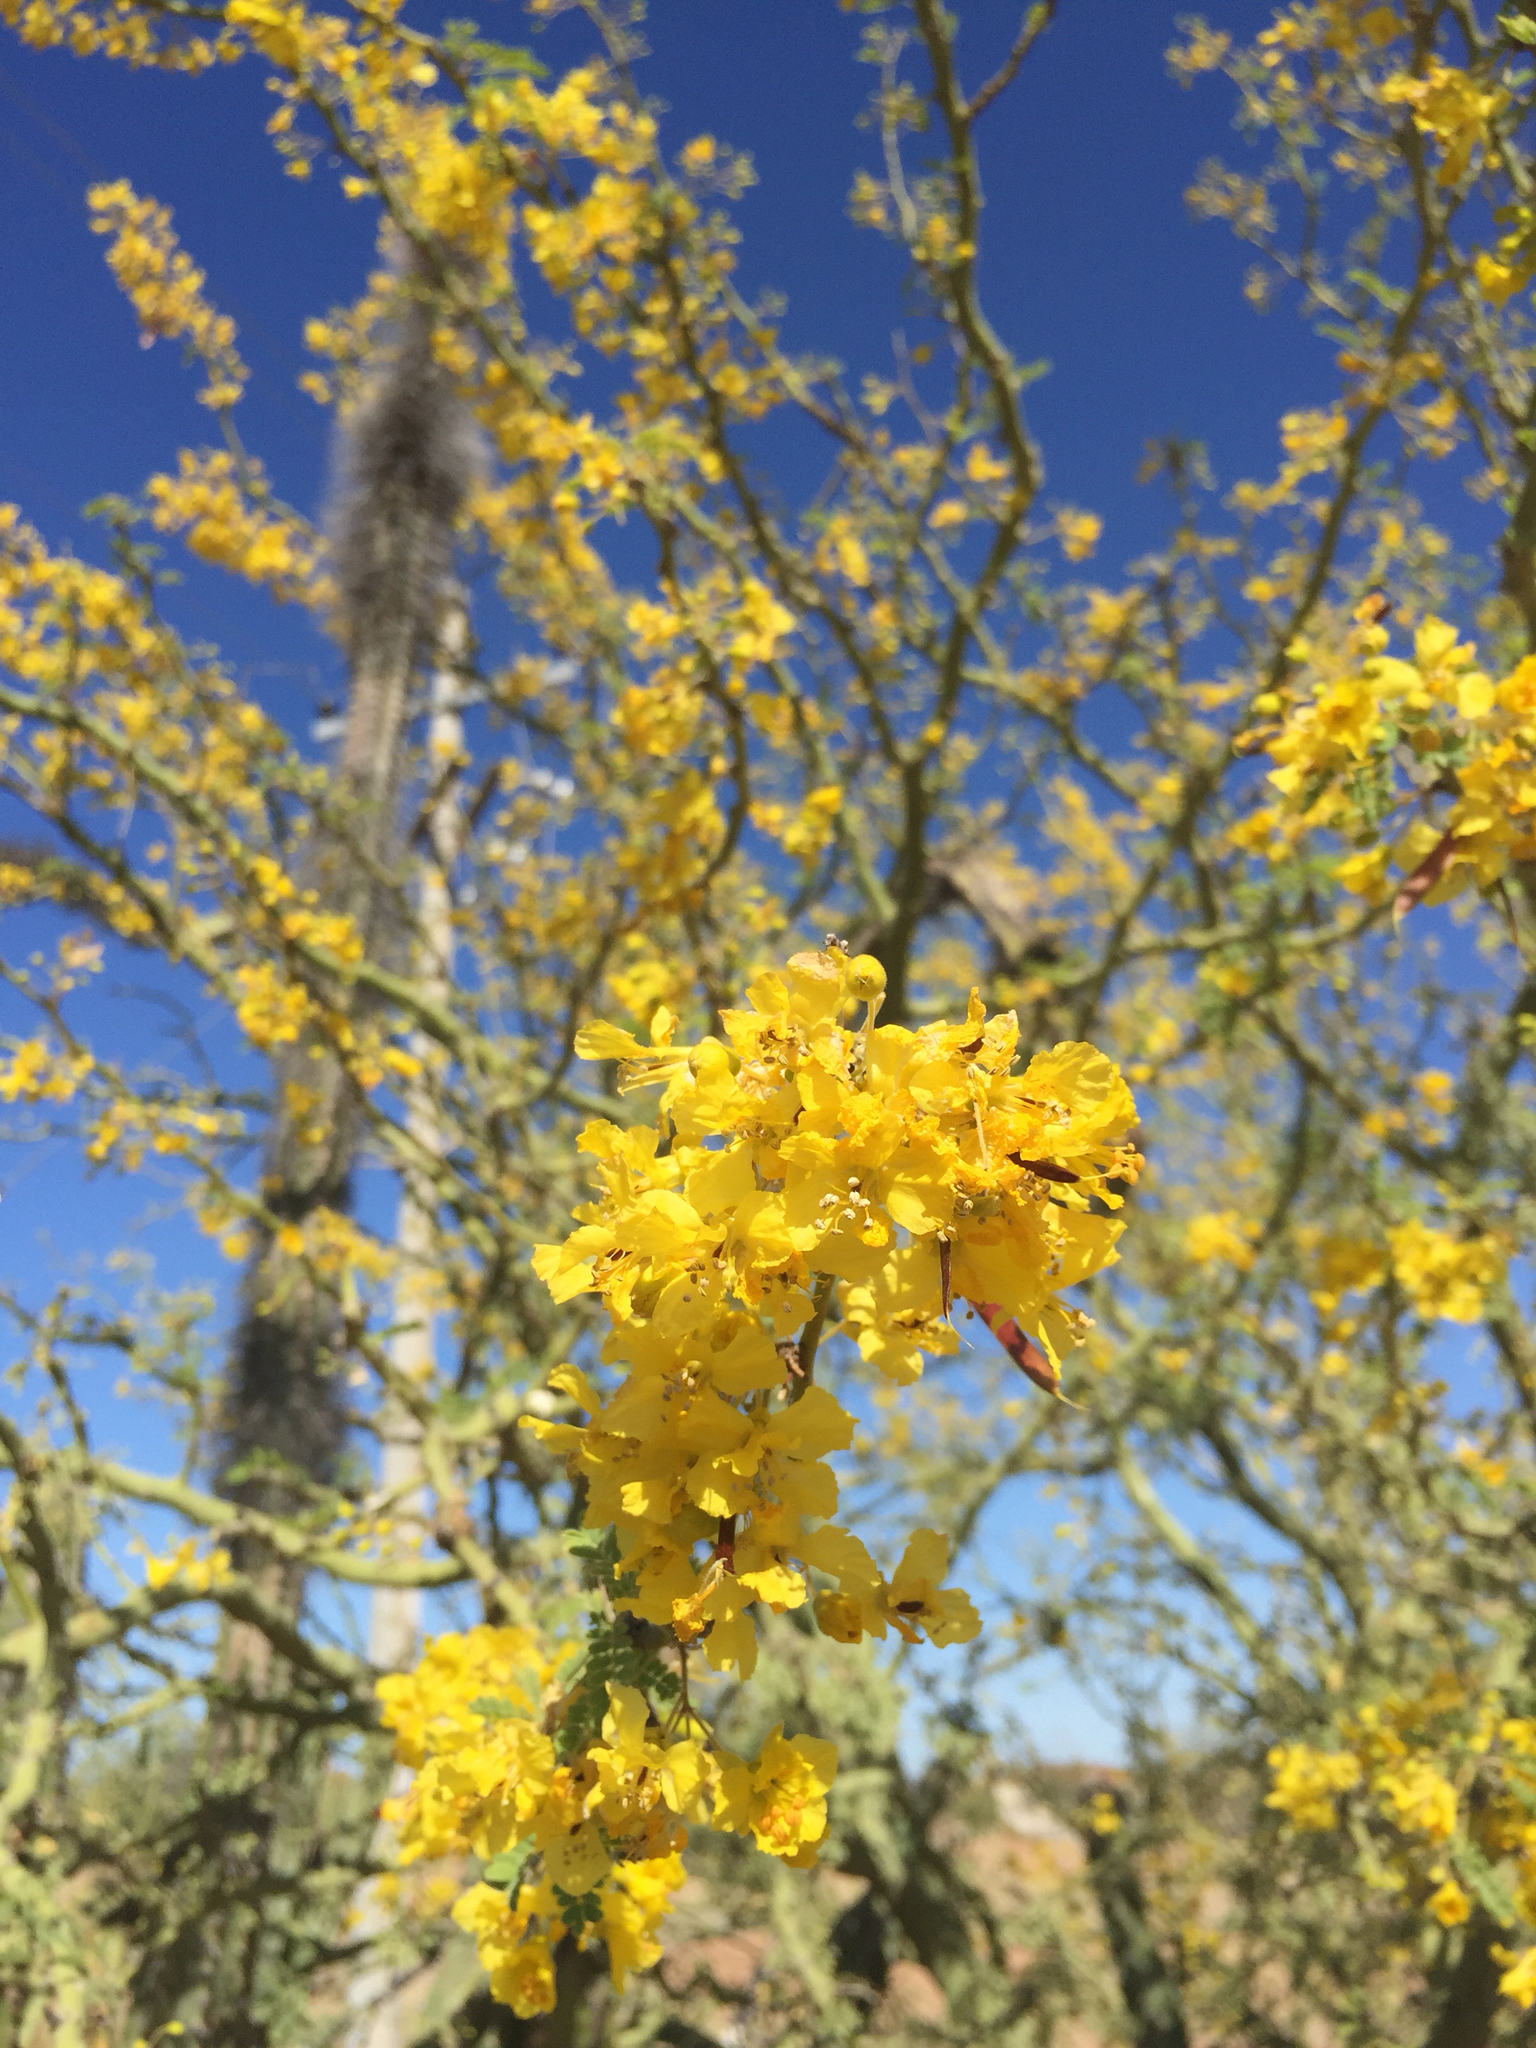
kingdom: Plantae
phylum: Tracheophyta
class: Magnoliopsida
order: Fabales
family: Fabaceae
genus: Parkinsonia
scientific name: Parkinsonia praecox
